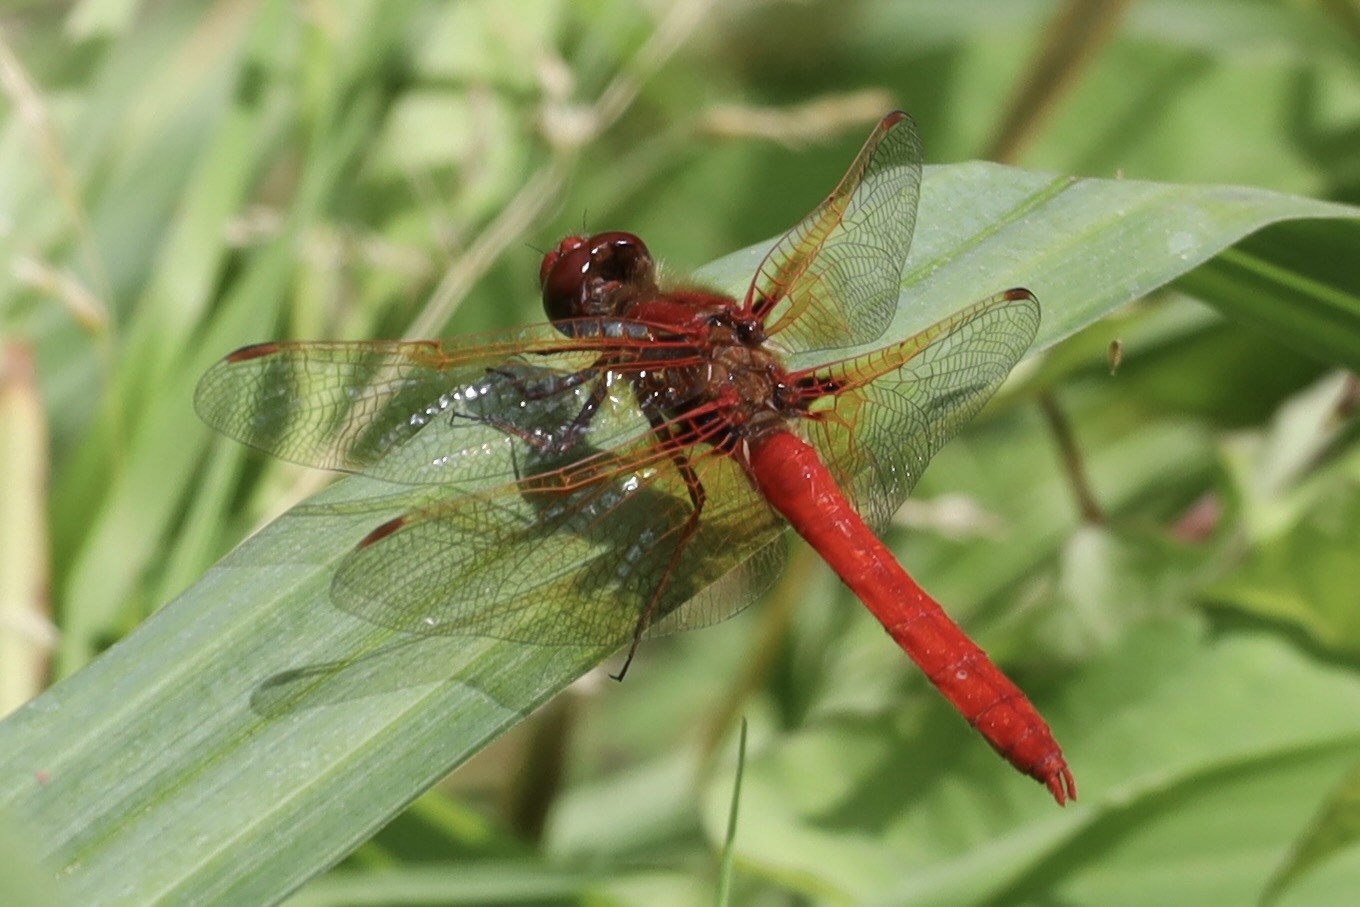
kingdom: Animalia
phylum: Arthropoda
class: Insecta
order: Odonata
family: Libellulidae
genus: Sympetrum
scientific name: Sympetrum illotum
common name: Cardinal meadowhawk
